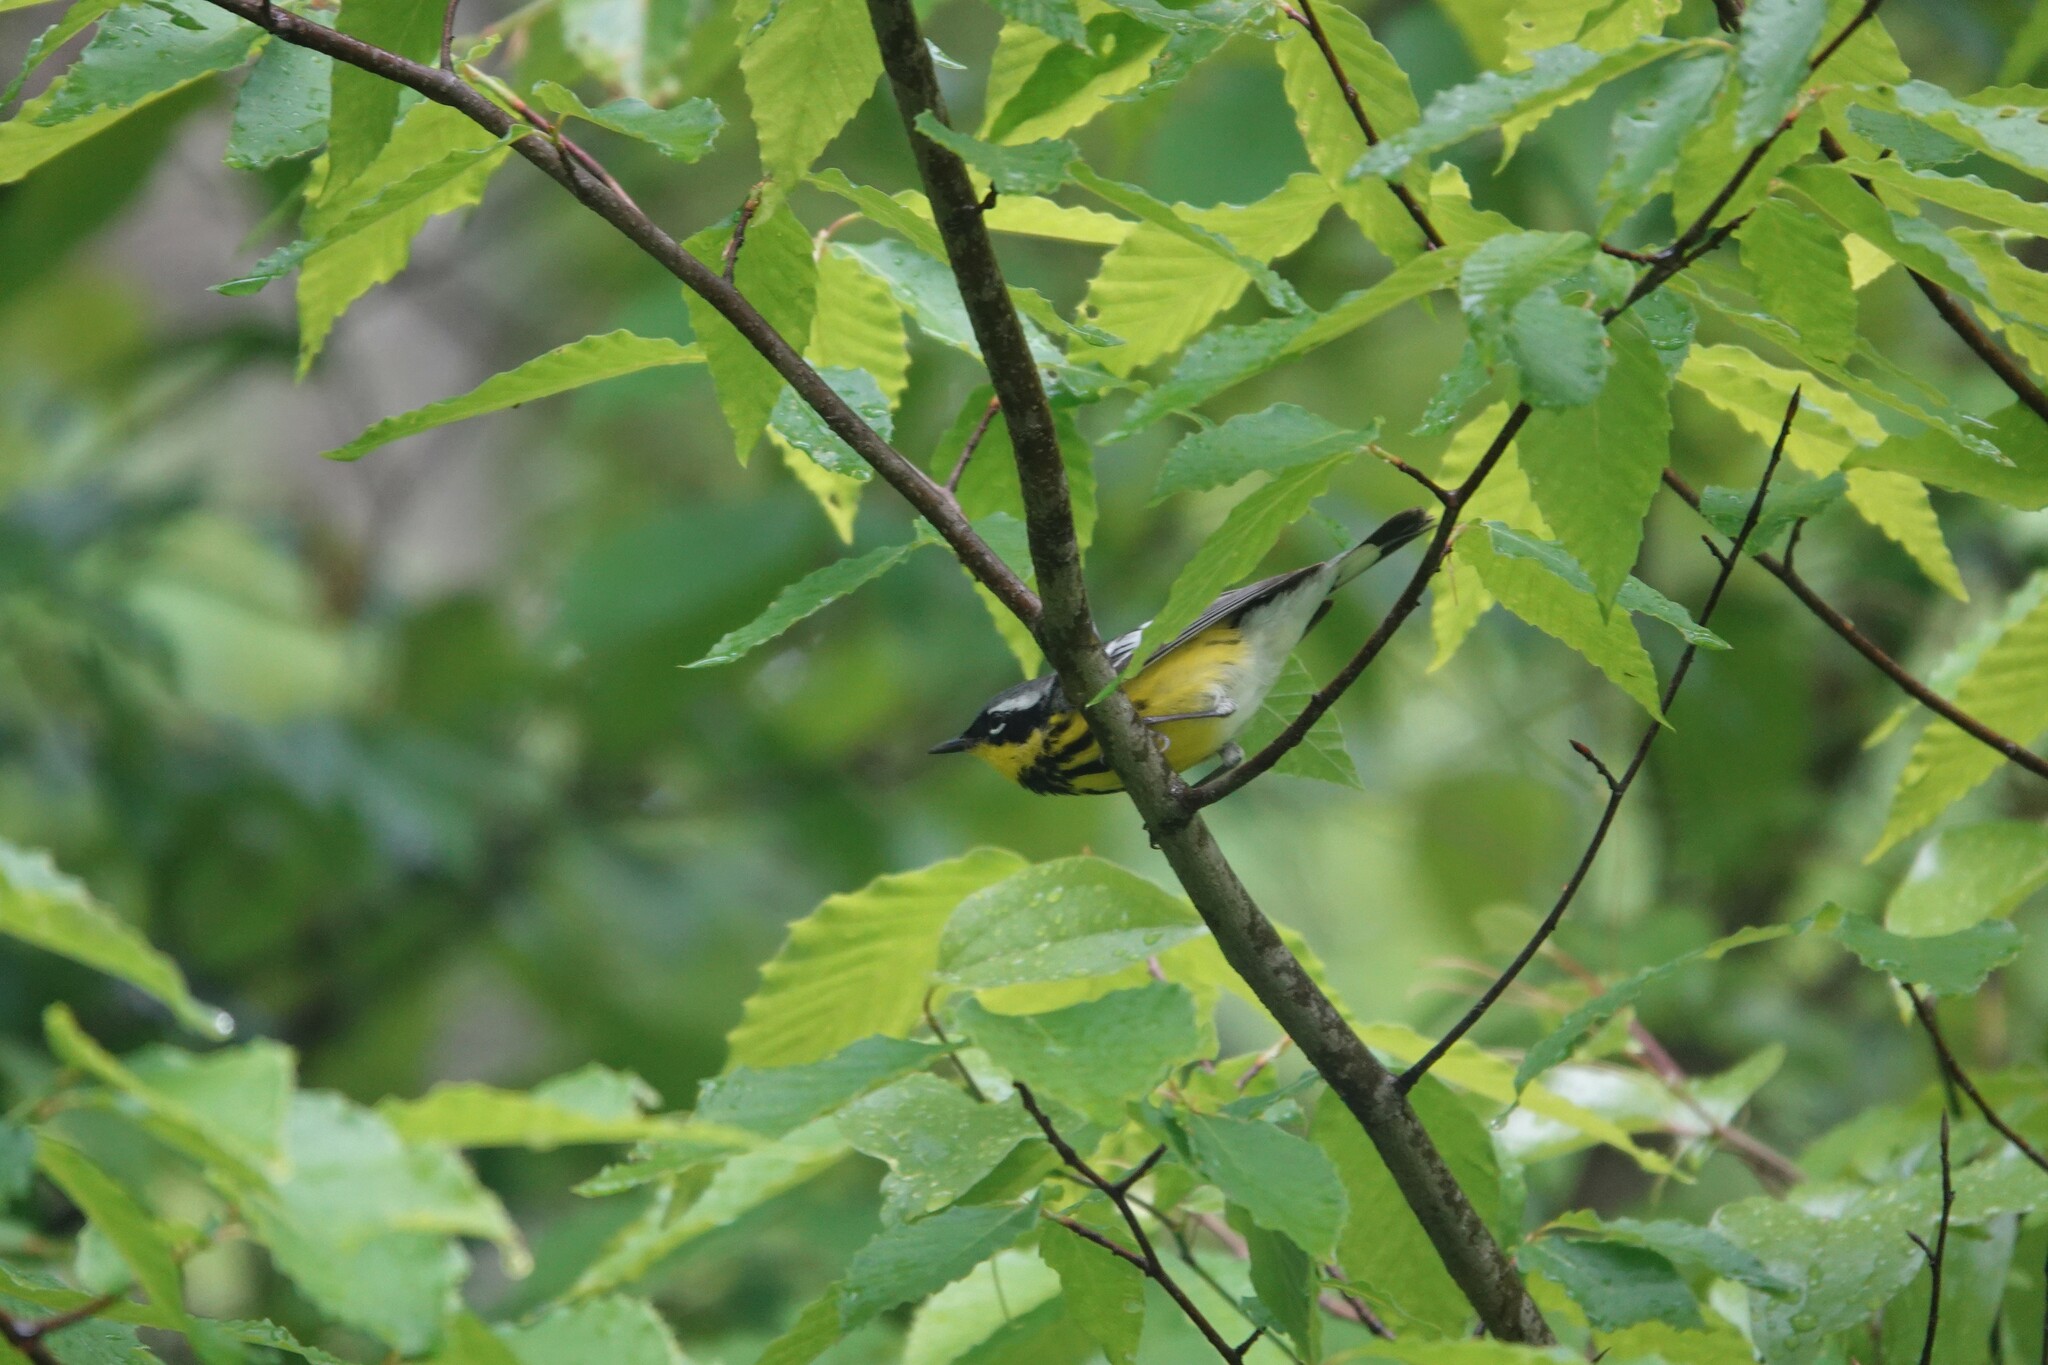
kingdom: Animalia
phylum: Chordata
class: Aves
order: Passeriformes
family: Parulidae
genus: Setophaga
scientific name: Setophaga magnolia
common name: Magnolia warbler
